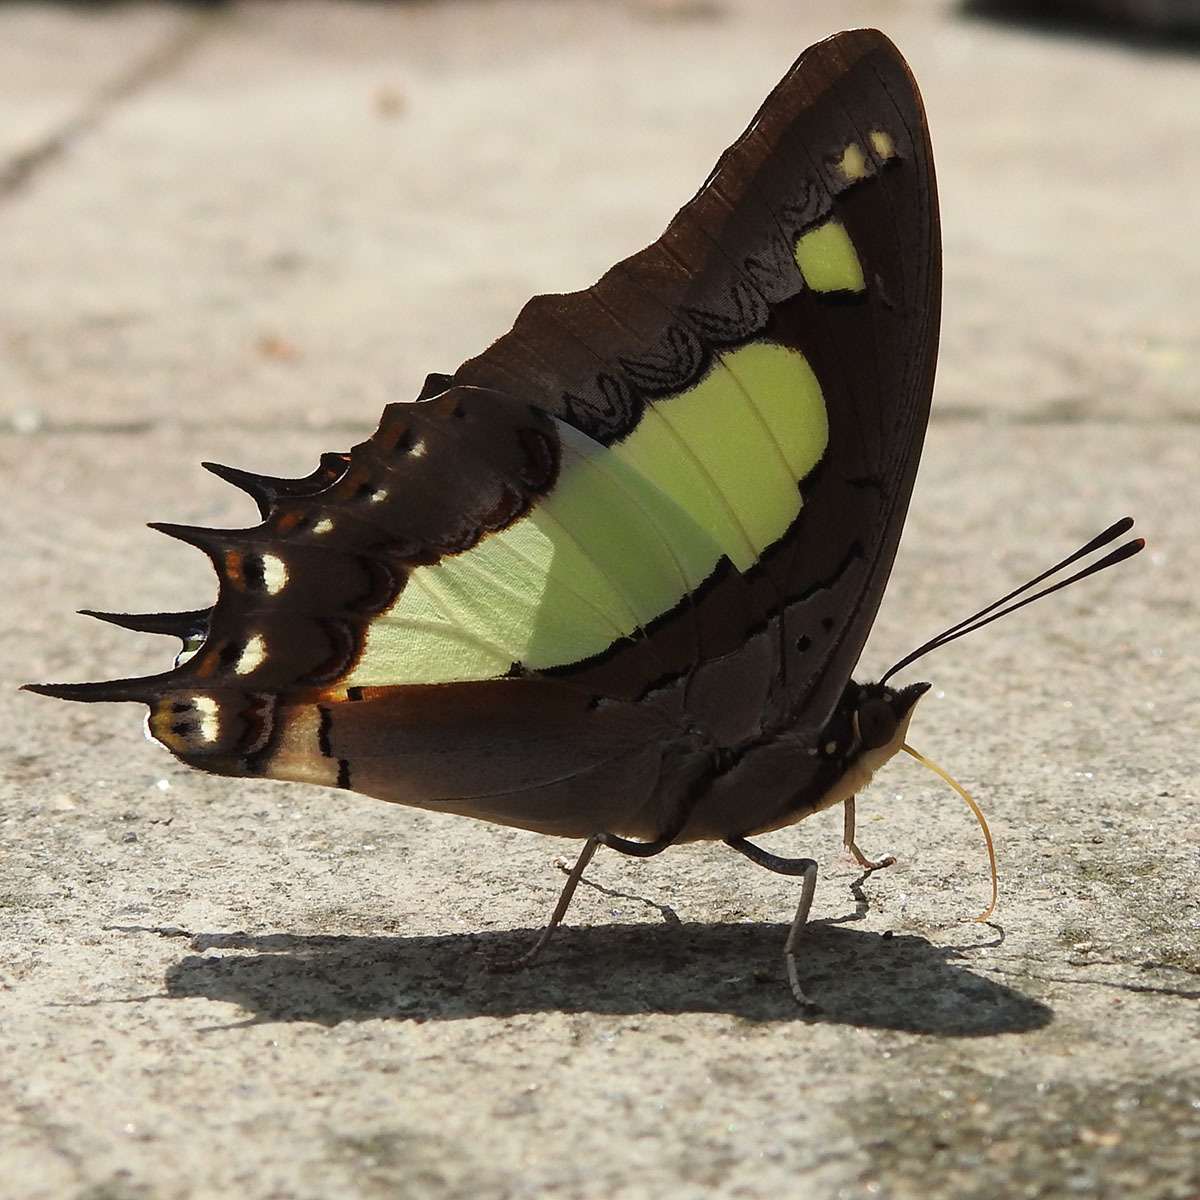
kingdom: Animalia
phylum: Arthropoda
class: Insecta
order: Lepidoptera
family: Nymphalidae
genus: Polyura
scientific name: Polyura agrarius
